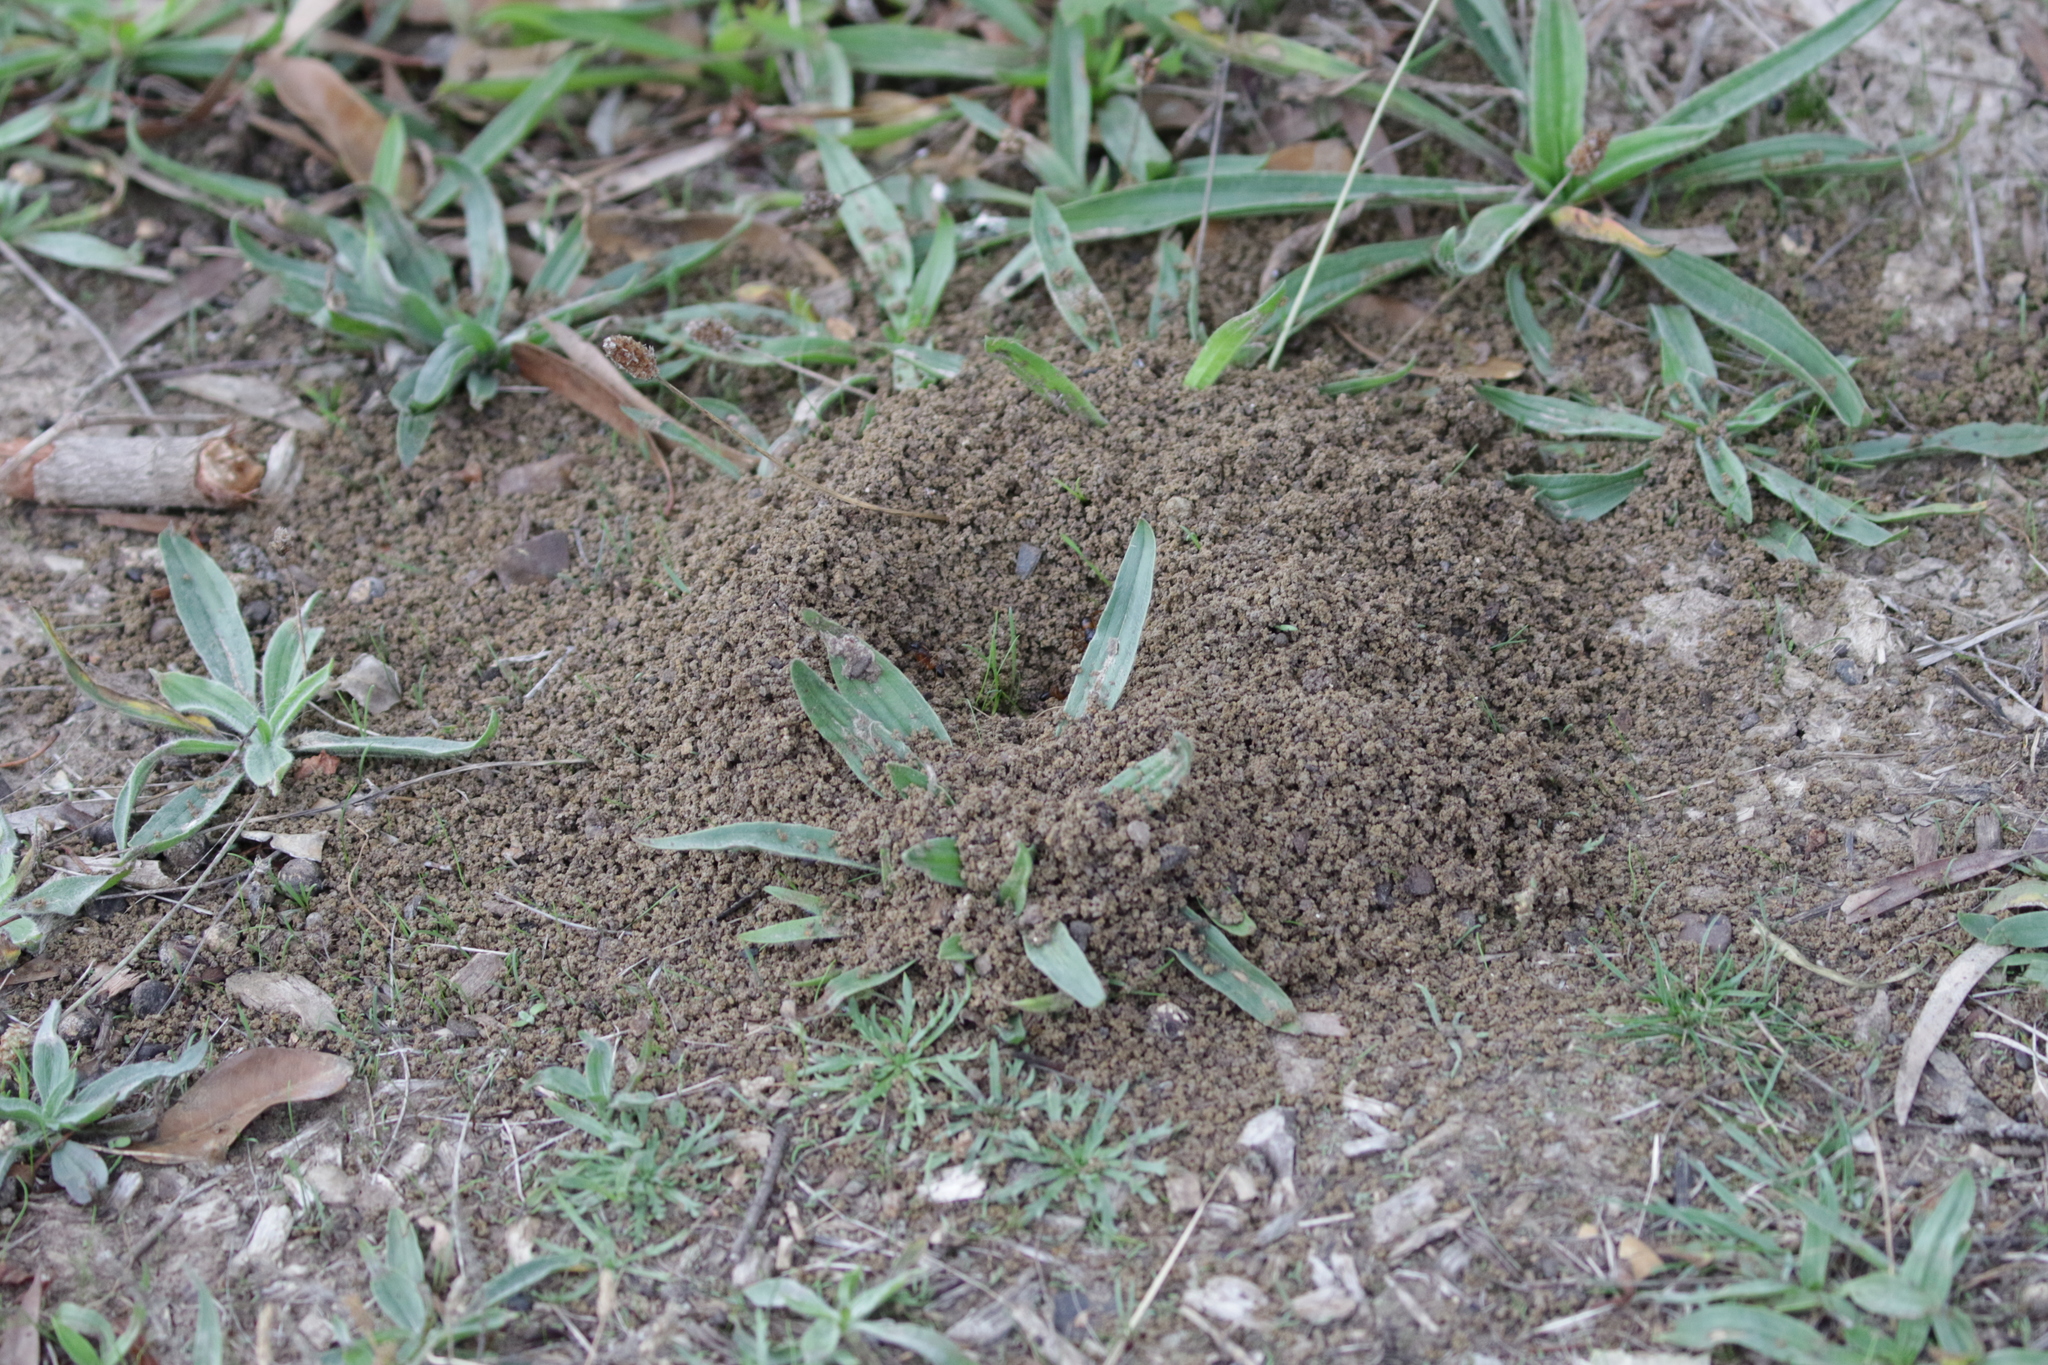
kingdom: Animalia
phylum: Arthropoda
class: Insecta
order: Hymenoptera
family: Formicidae
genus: Camponotus
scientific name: Camponotus consobrinus
